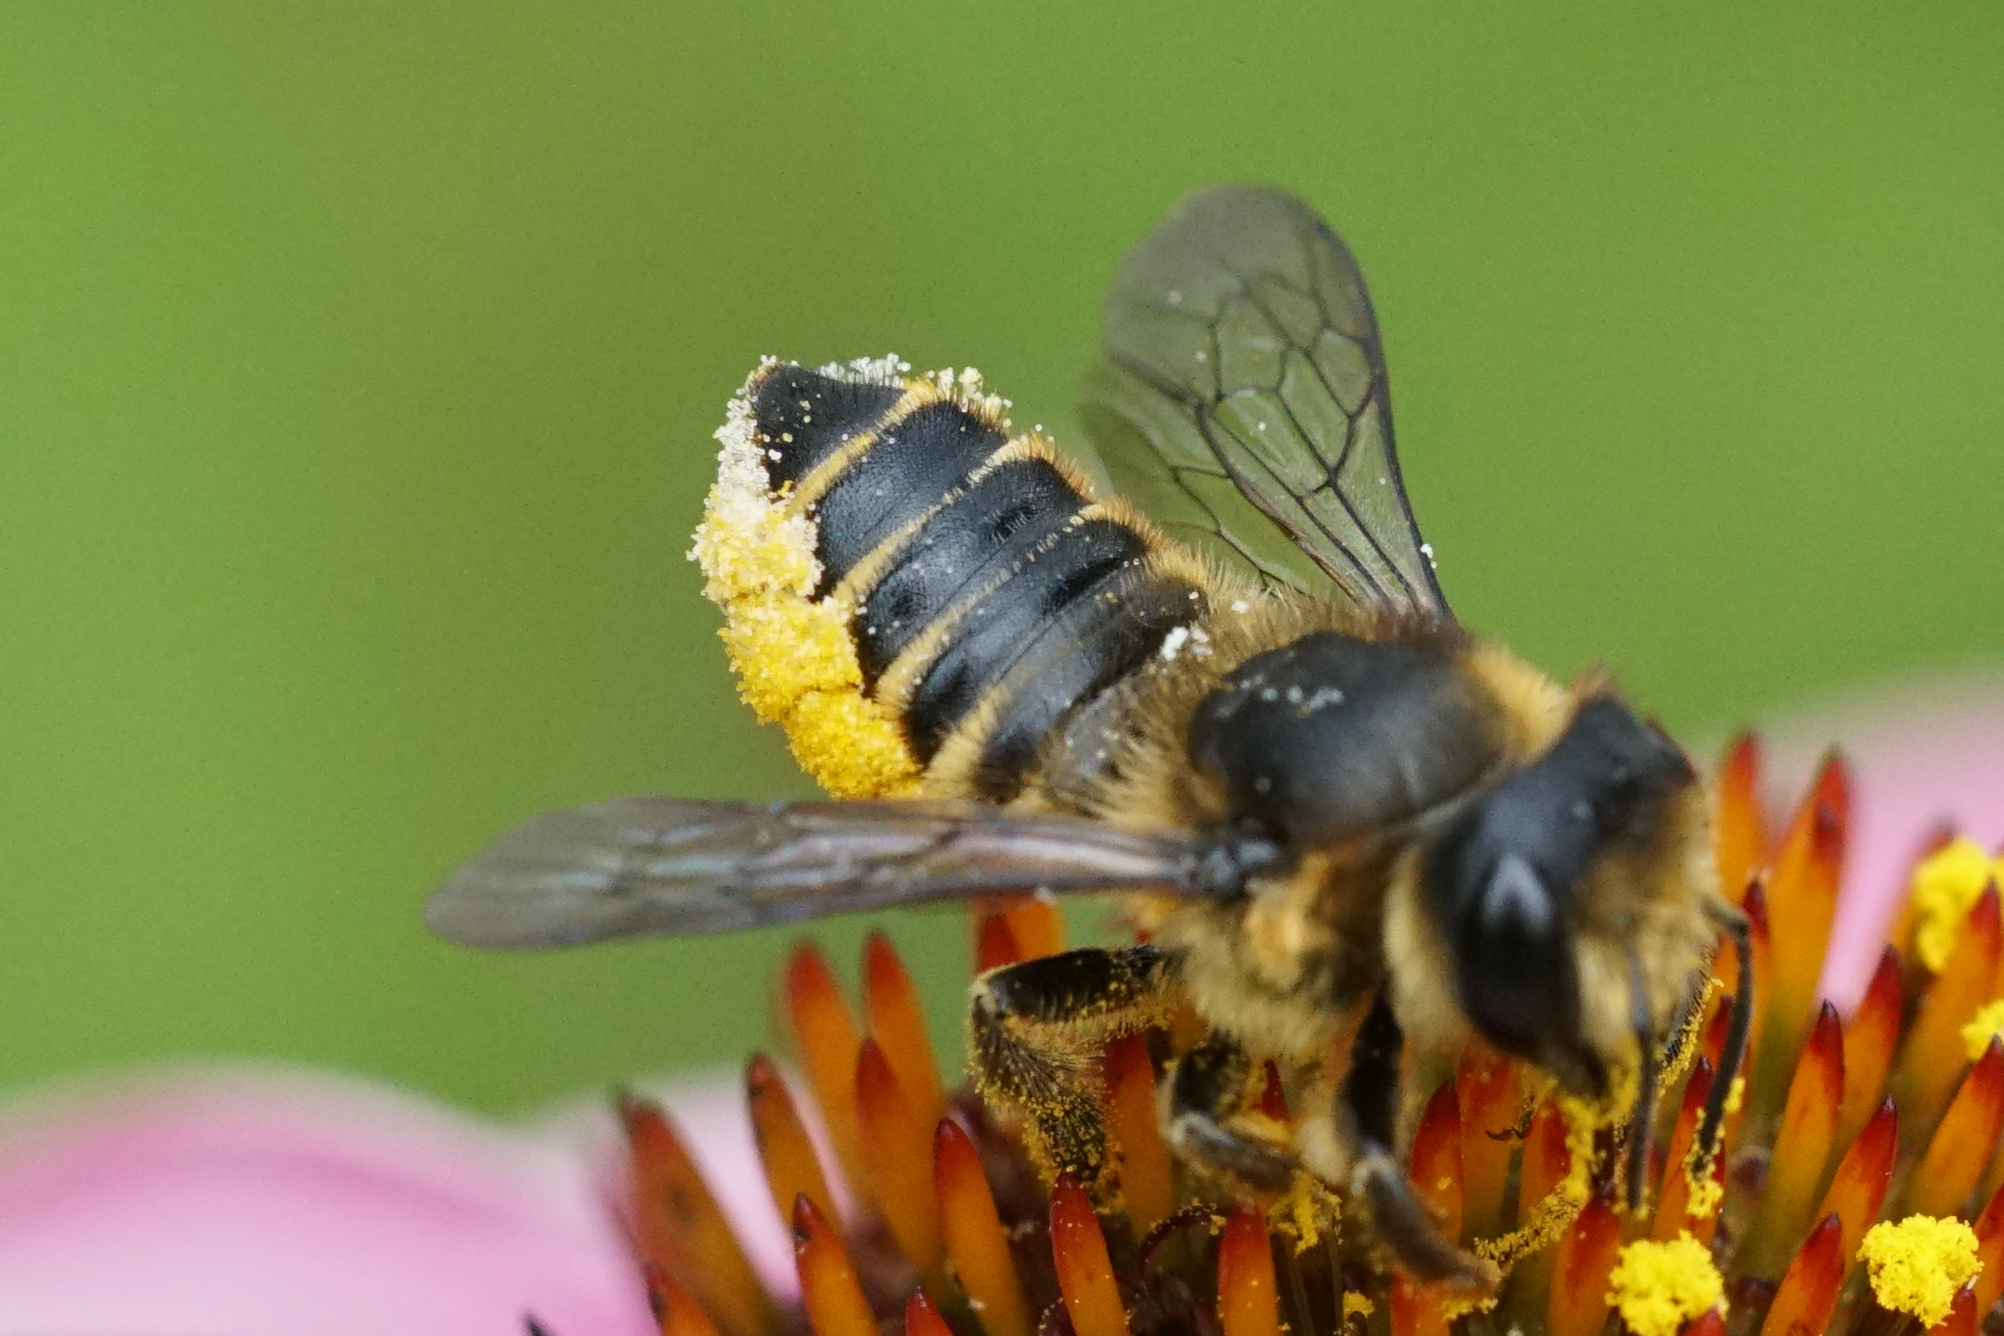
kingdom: Animalia
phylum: Arthropoda
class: Insecta
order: Hymenoptera
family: Megachilidae
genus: Megachile
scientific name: Megachile centuncularis
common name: Patchwork leafcutter bee
